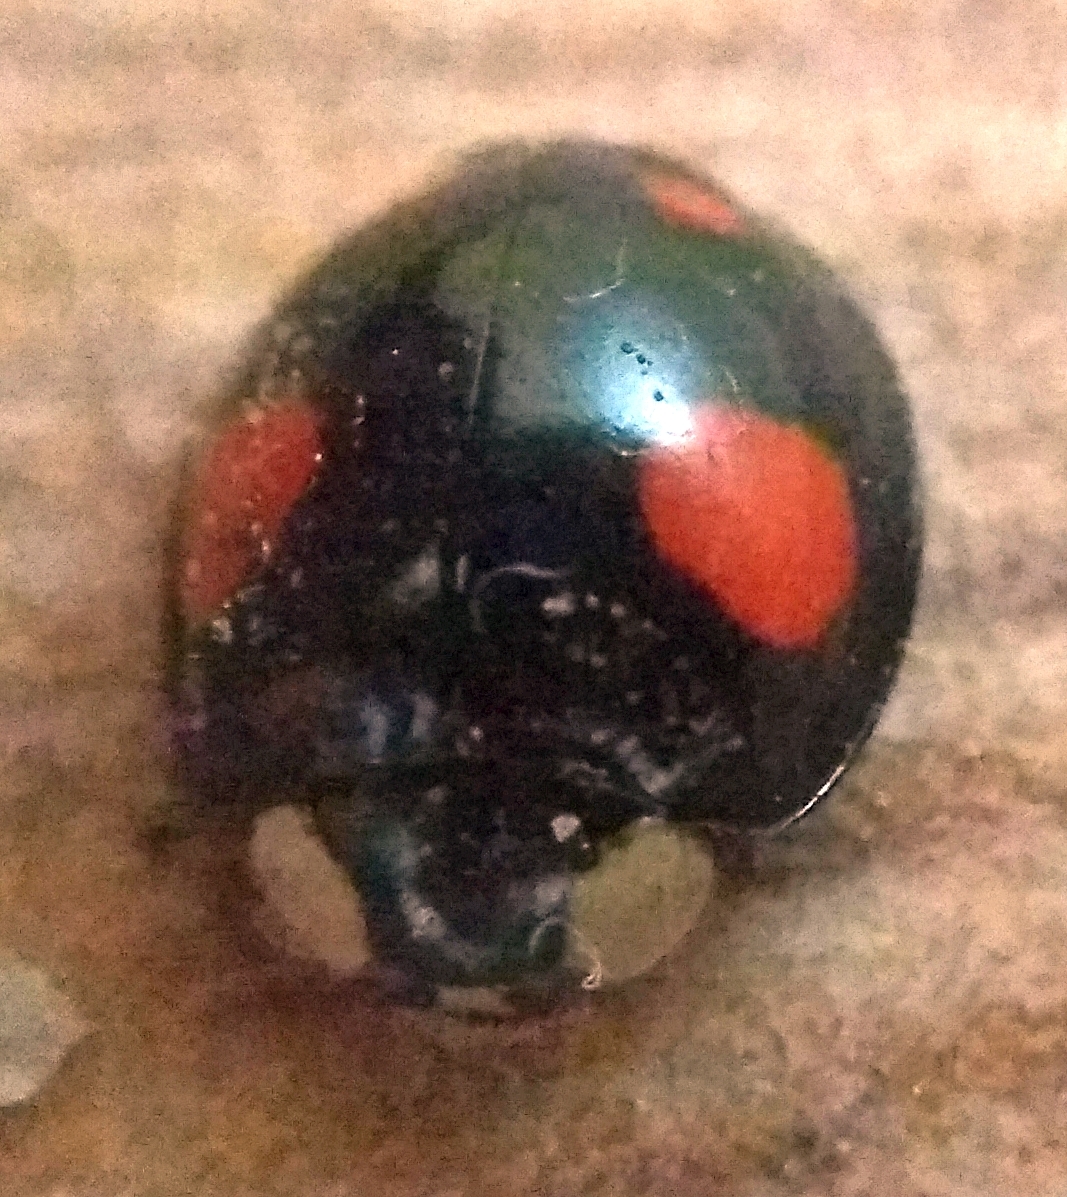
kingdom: Animalia
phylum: Arthropoda
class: Insecta
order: Coleoptera
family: Coccinellidae
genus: Harmonia
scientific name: Harmonia axyridis
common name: Harlequin ladybird
